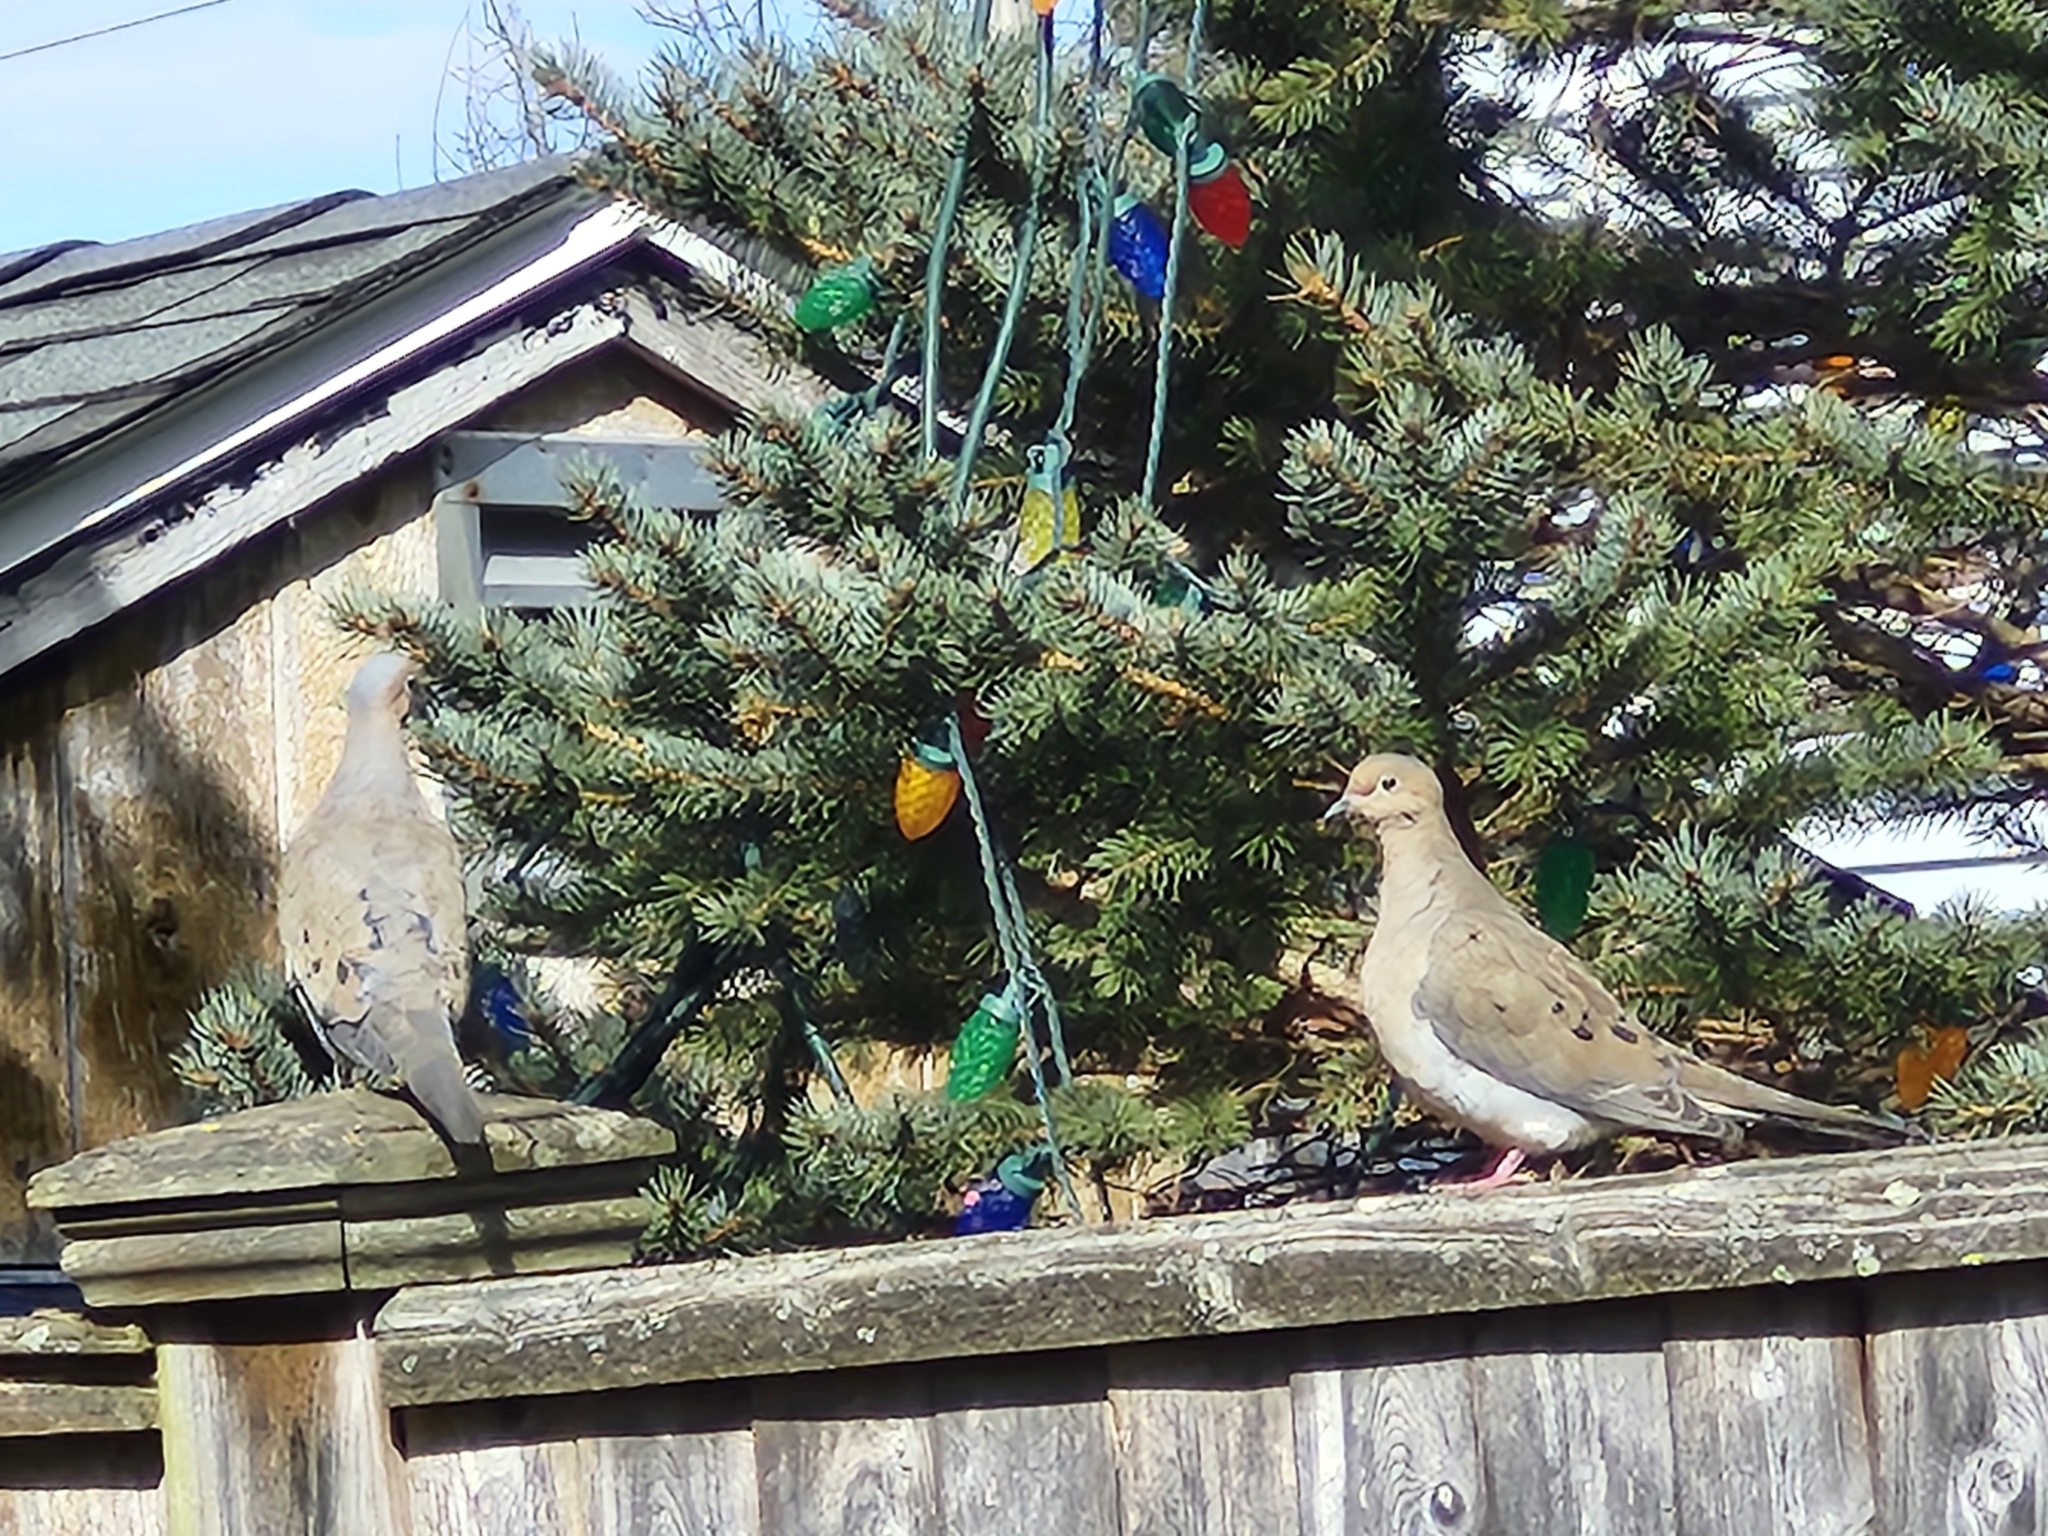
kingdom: Animalia
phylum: Chordata
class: Aves
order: Columbiformes
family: Columbidae
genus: Zenaida
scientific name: Zenaida macroura
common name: Mourning dove
